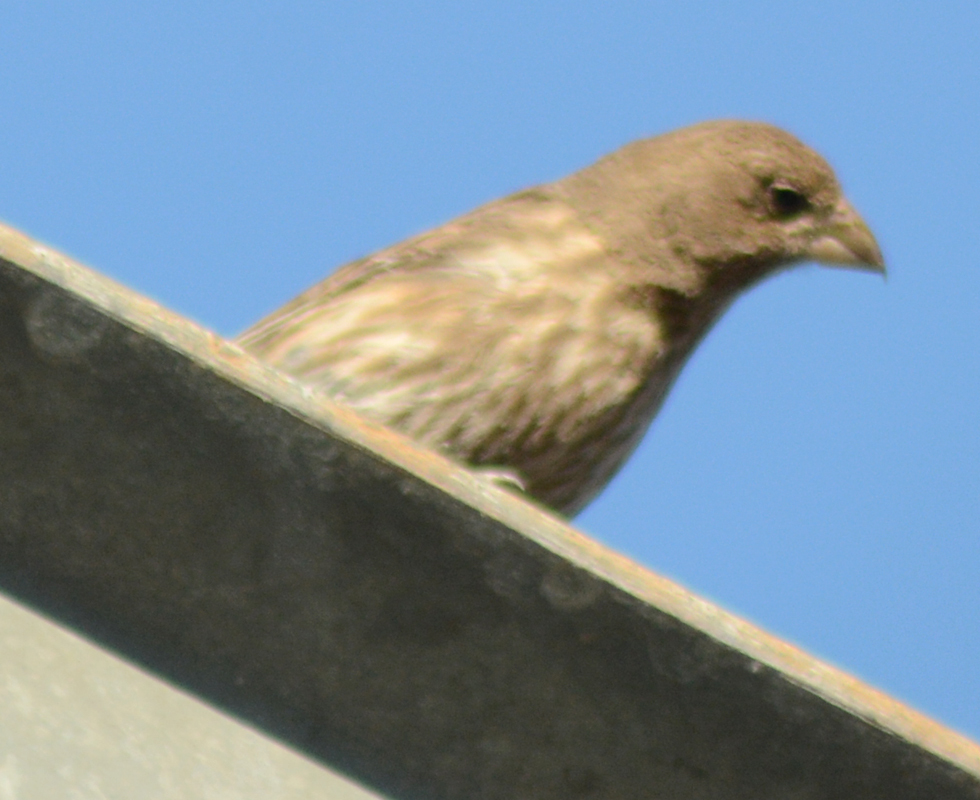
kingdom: Animalia
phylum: Chordata
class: Aves
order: Passeriformes
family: Fringillidae
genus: Haemorhous
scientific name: Haemorhous mexicanus
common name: House finch
